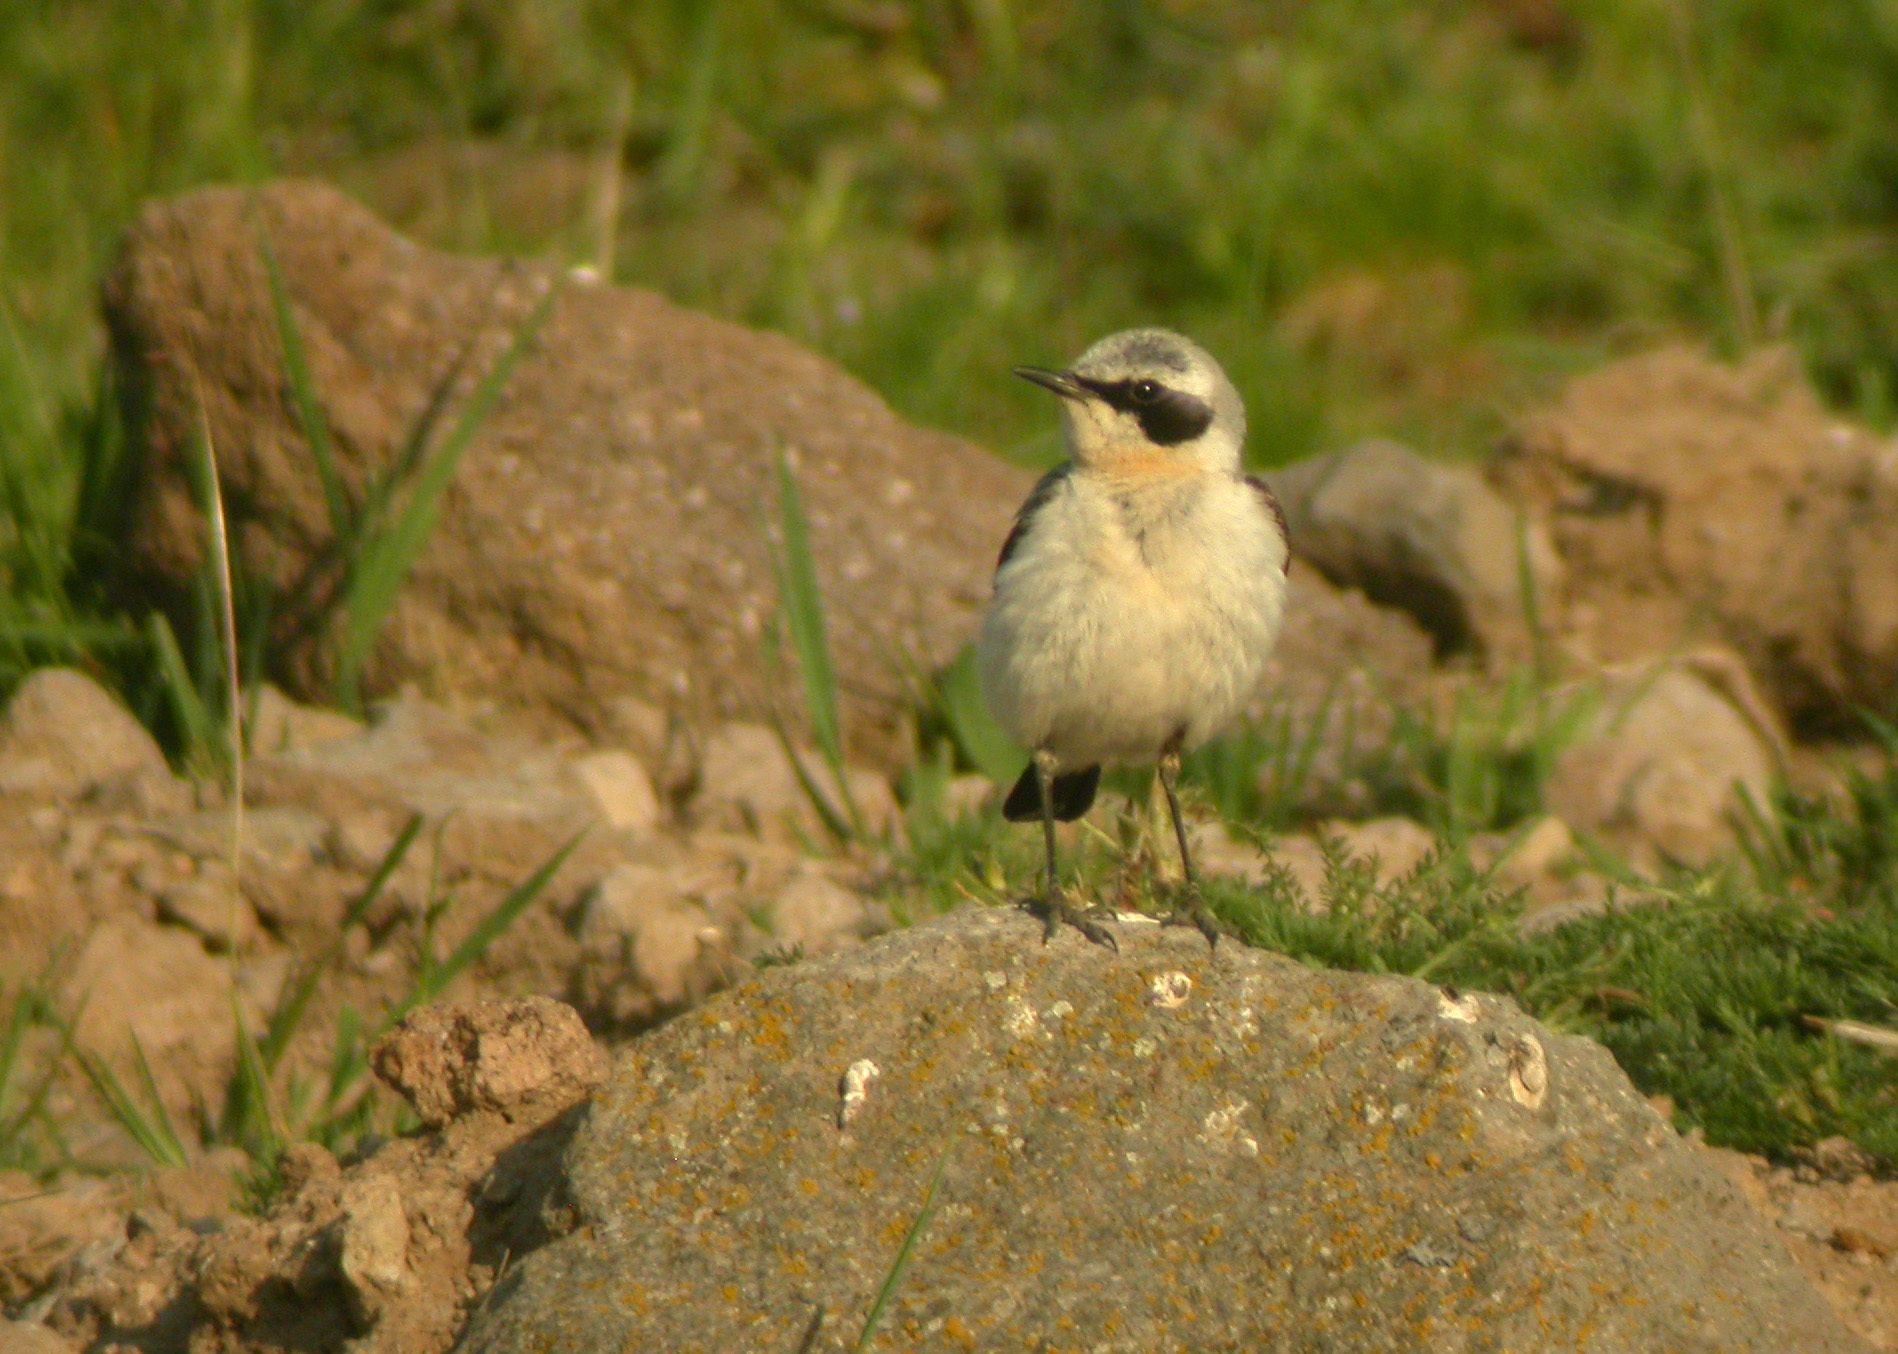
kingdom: Animalia
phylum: Chordata
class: Aves
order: Passeriformes
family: Muscicapidae
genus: Oenanthe
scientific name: Oenanthe oenanthe
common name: Northern wheatear
